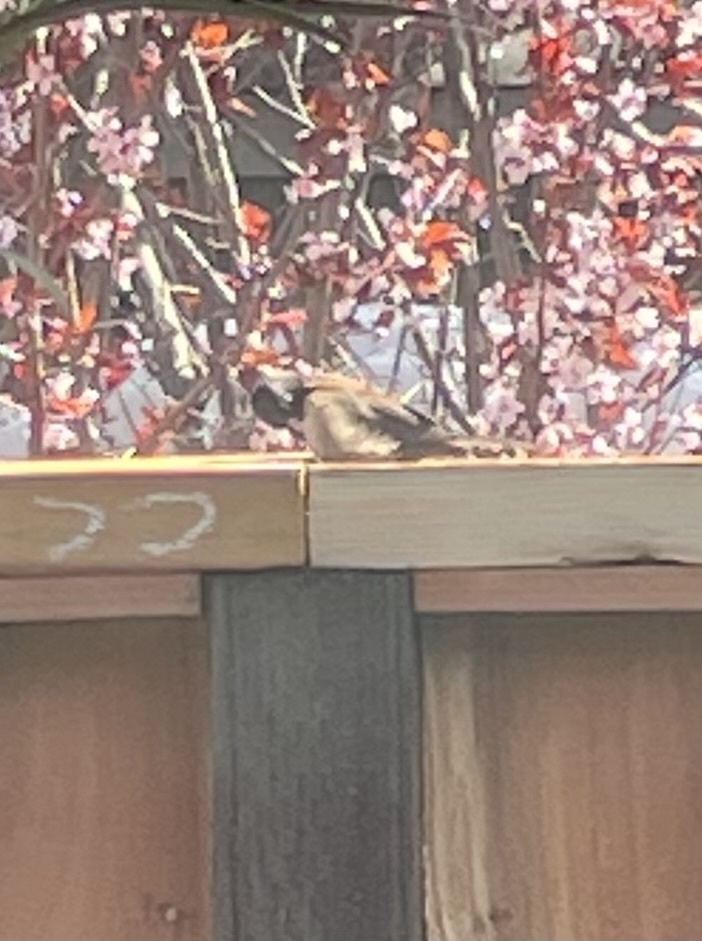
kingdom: Animalia
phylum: Chordata
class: Aves
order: Passeriformes
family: Passerellidae
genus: Junco
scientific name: Junco hyemalis
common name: Dark-eyed junco
